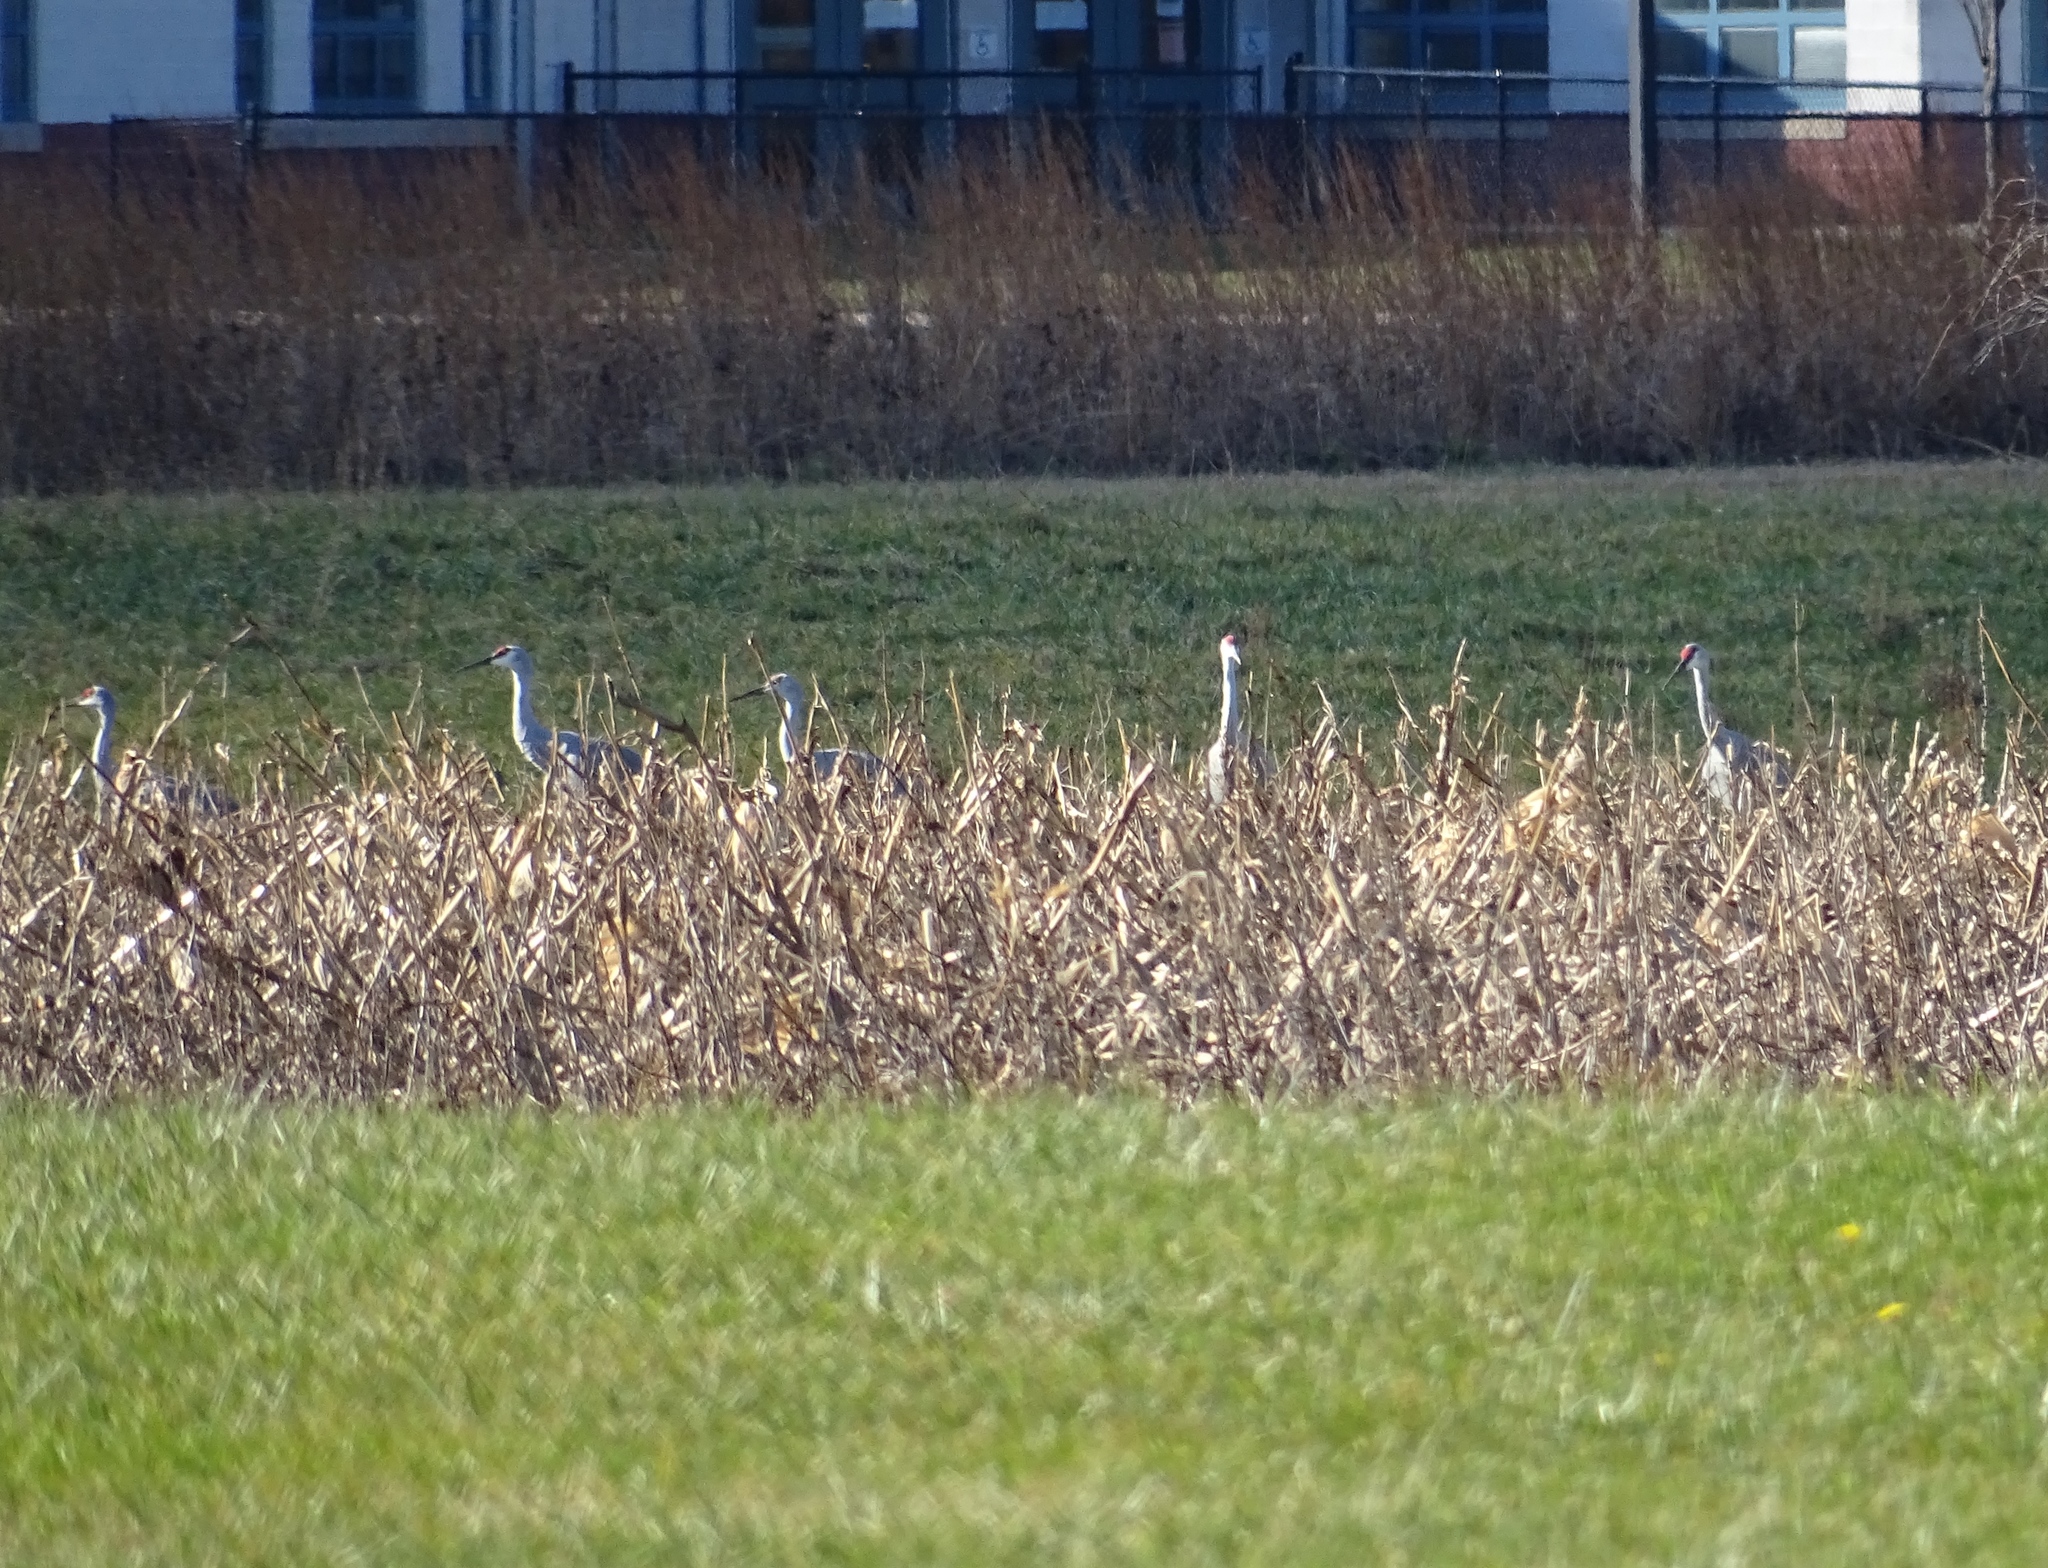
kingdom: Animalia
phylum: Chordata
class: Aves
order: Gruiformes
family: Gruidae
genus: Grus
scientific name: Grus canadensis
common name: Sandhill crane
